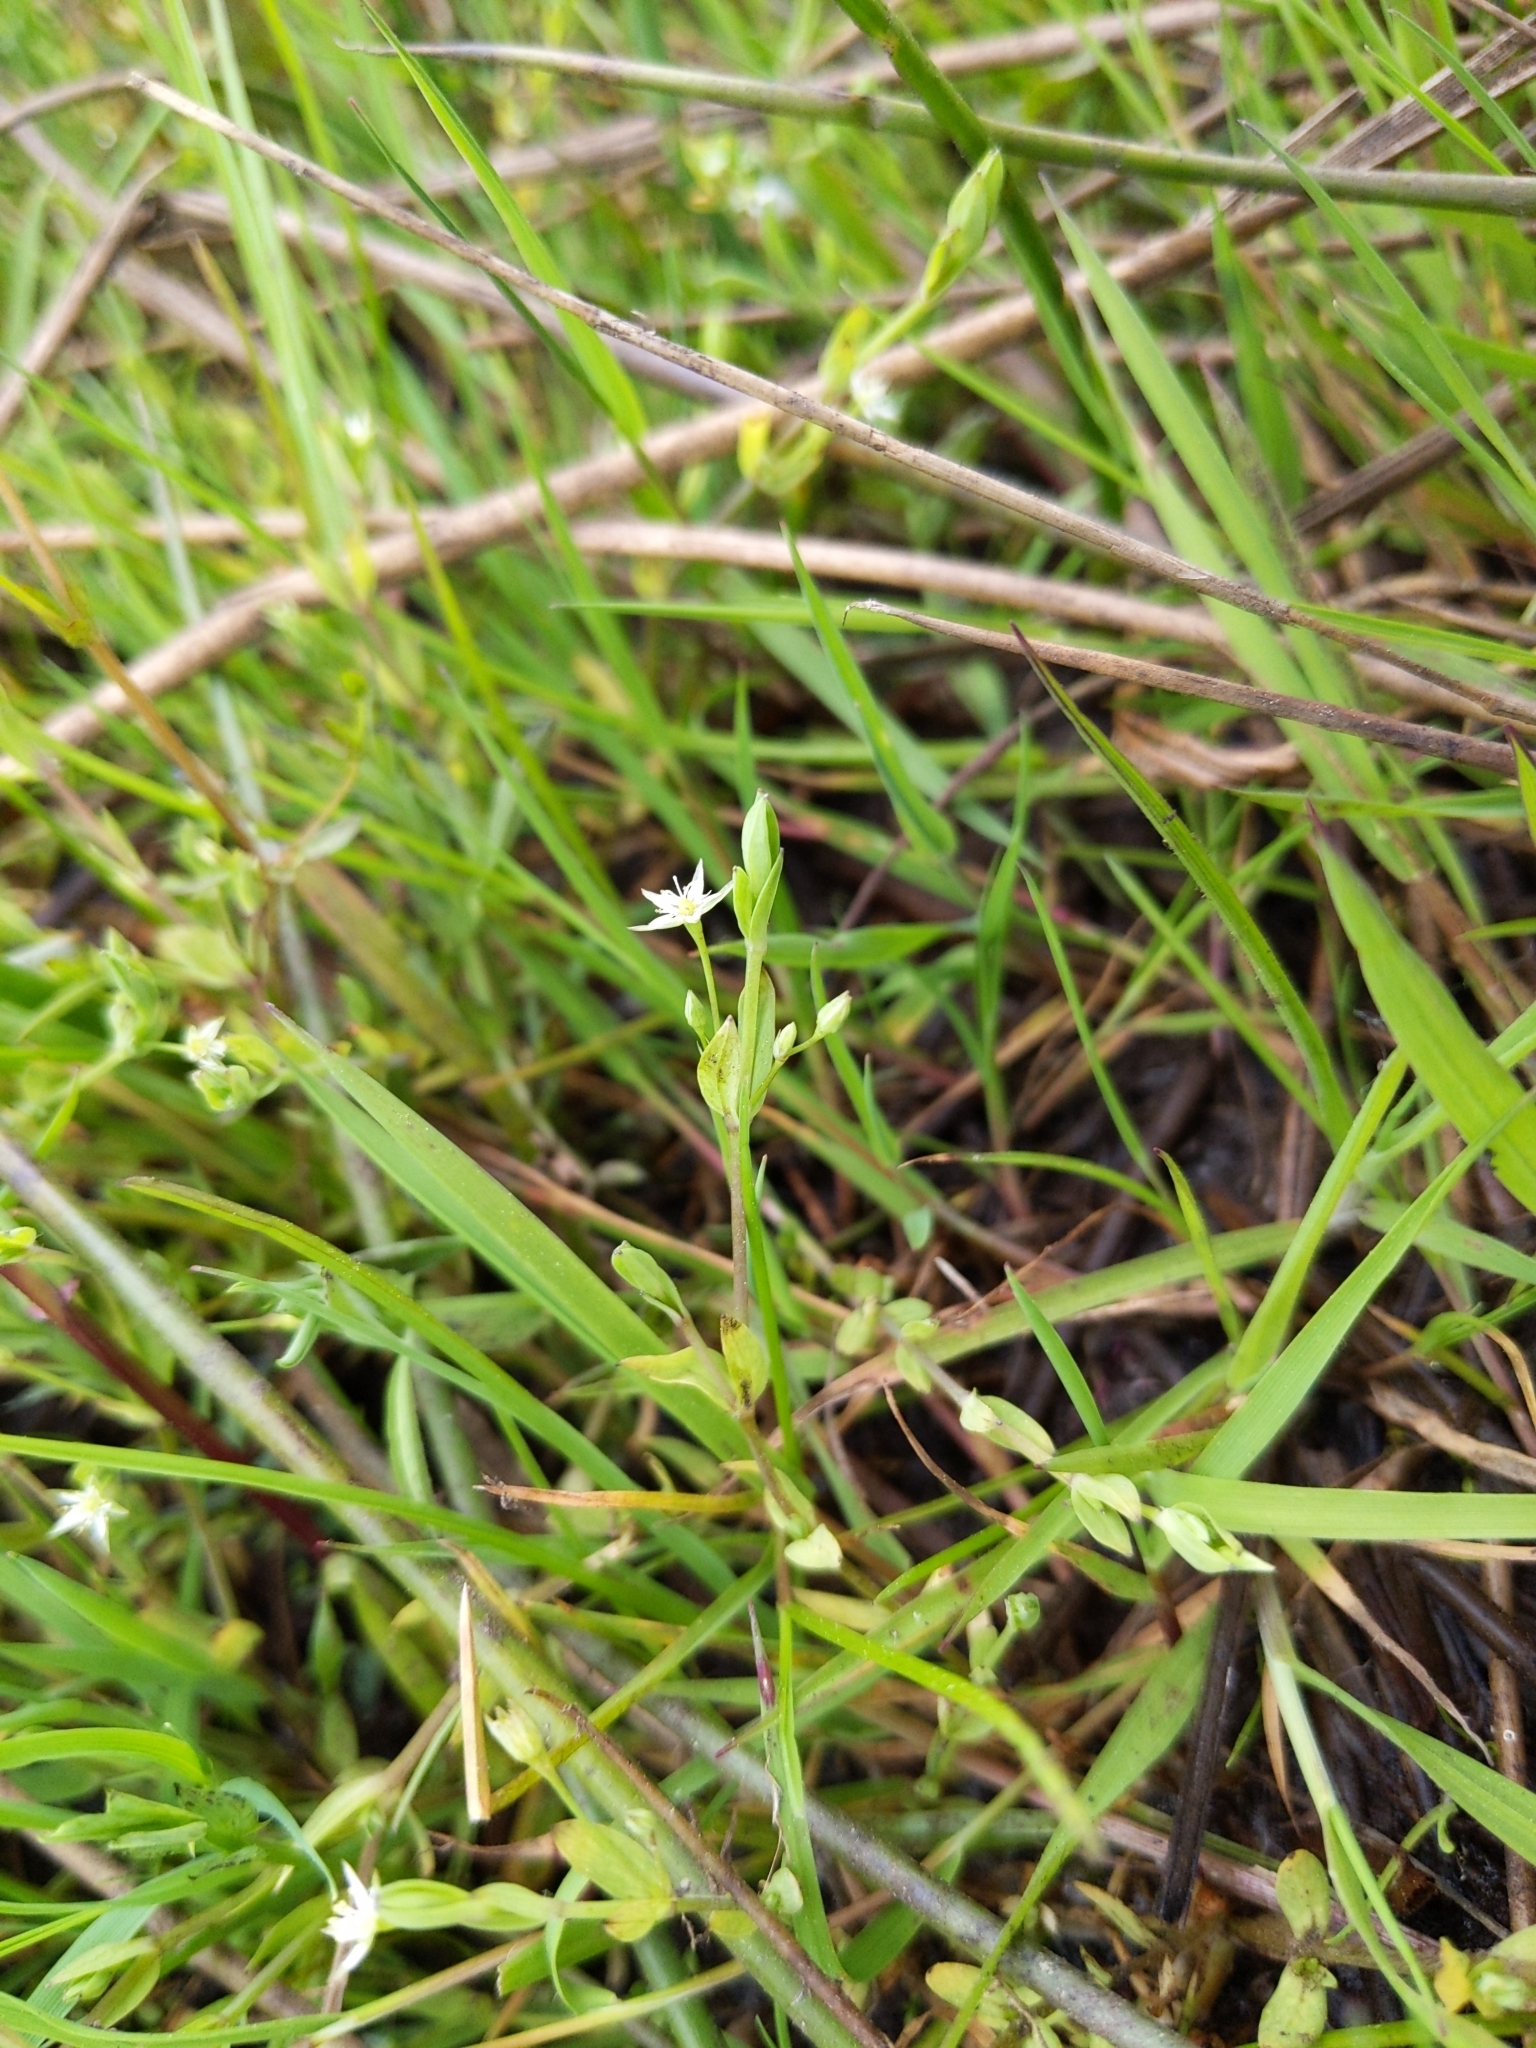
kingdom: Plantae
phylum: Tracheophyta
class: Magnoliopsida
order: Caryophyllales
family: Caryophyllaceae
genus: Stellaria
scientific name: Stellaria alsine
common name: Bog stitchwort
